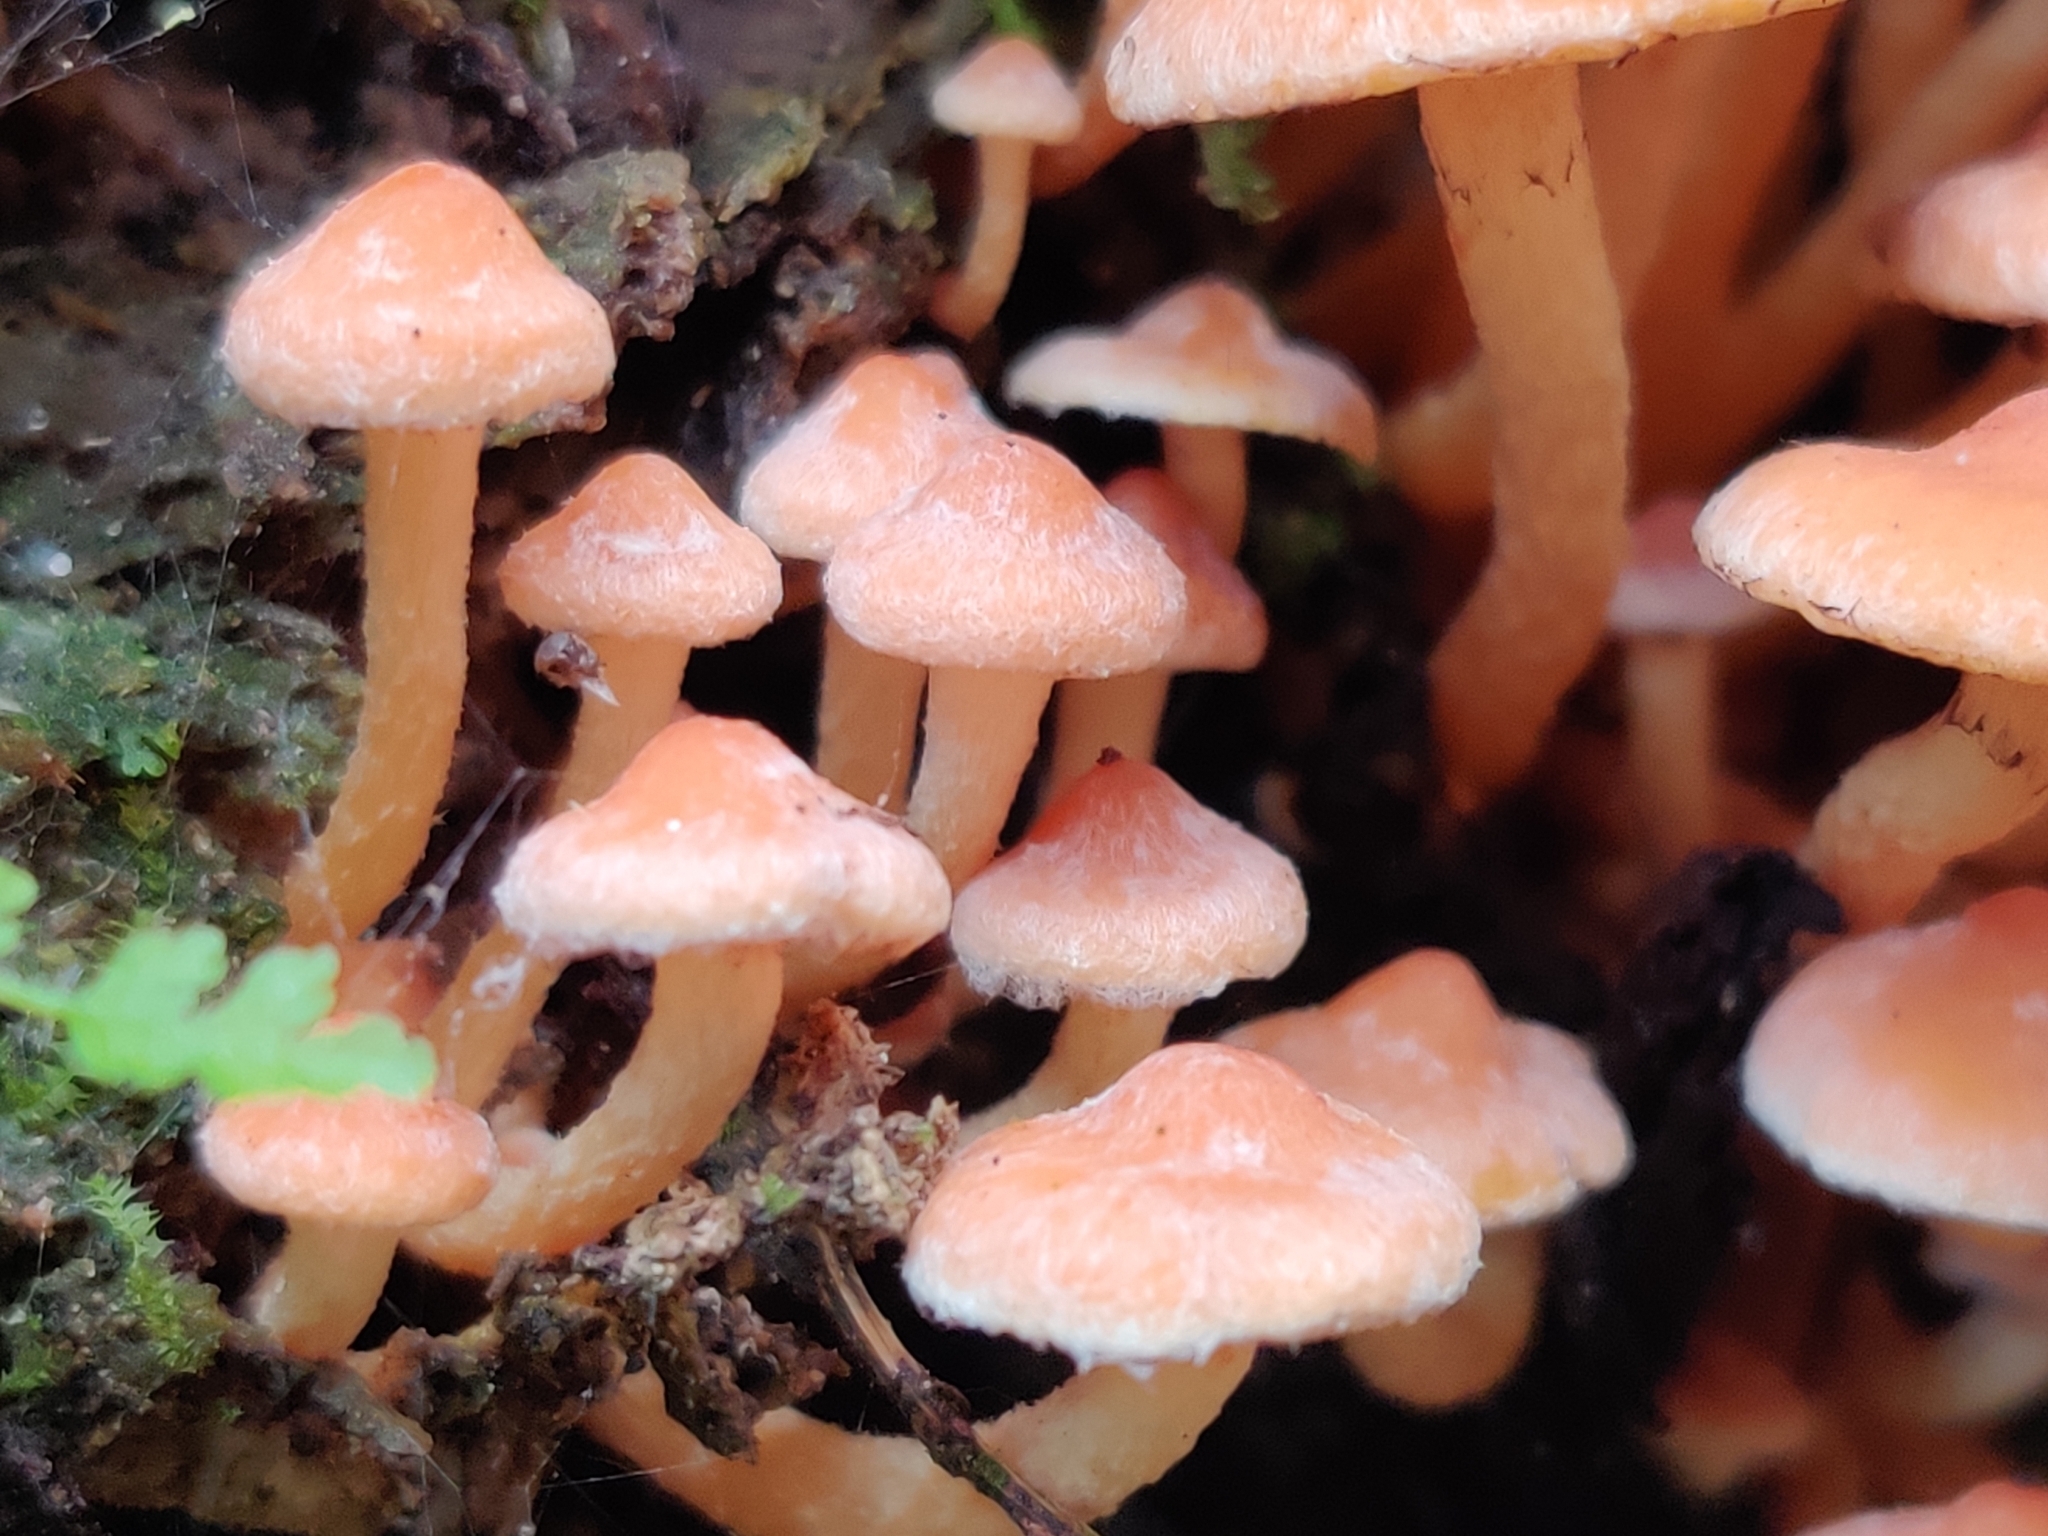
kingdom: Fungi
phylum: Basidiomycota
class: Agaricomycetes
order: Agaricales
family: Strophariaceae
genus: Hypholoma
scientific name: Hypholoma acutum
